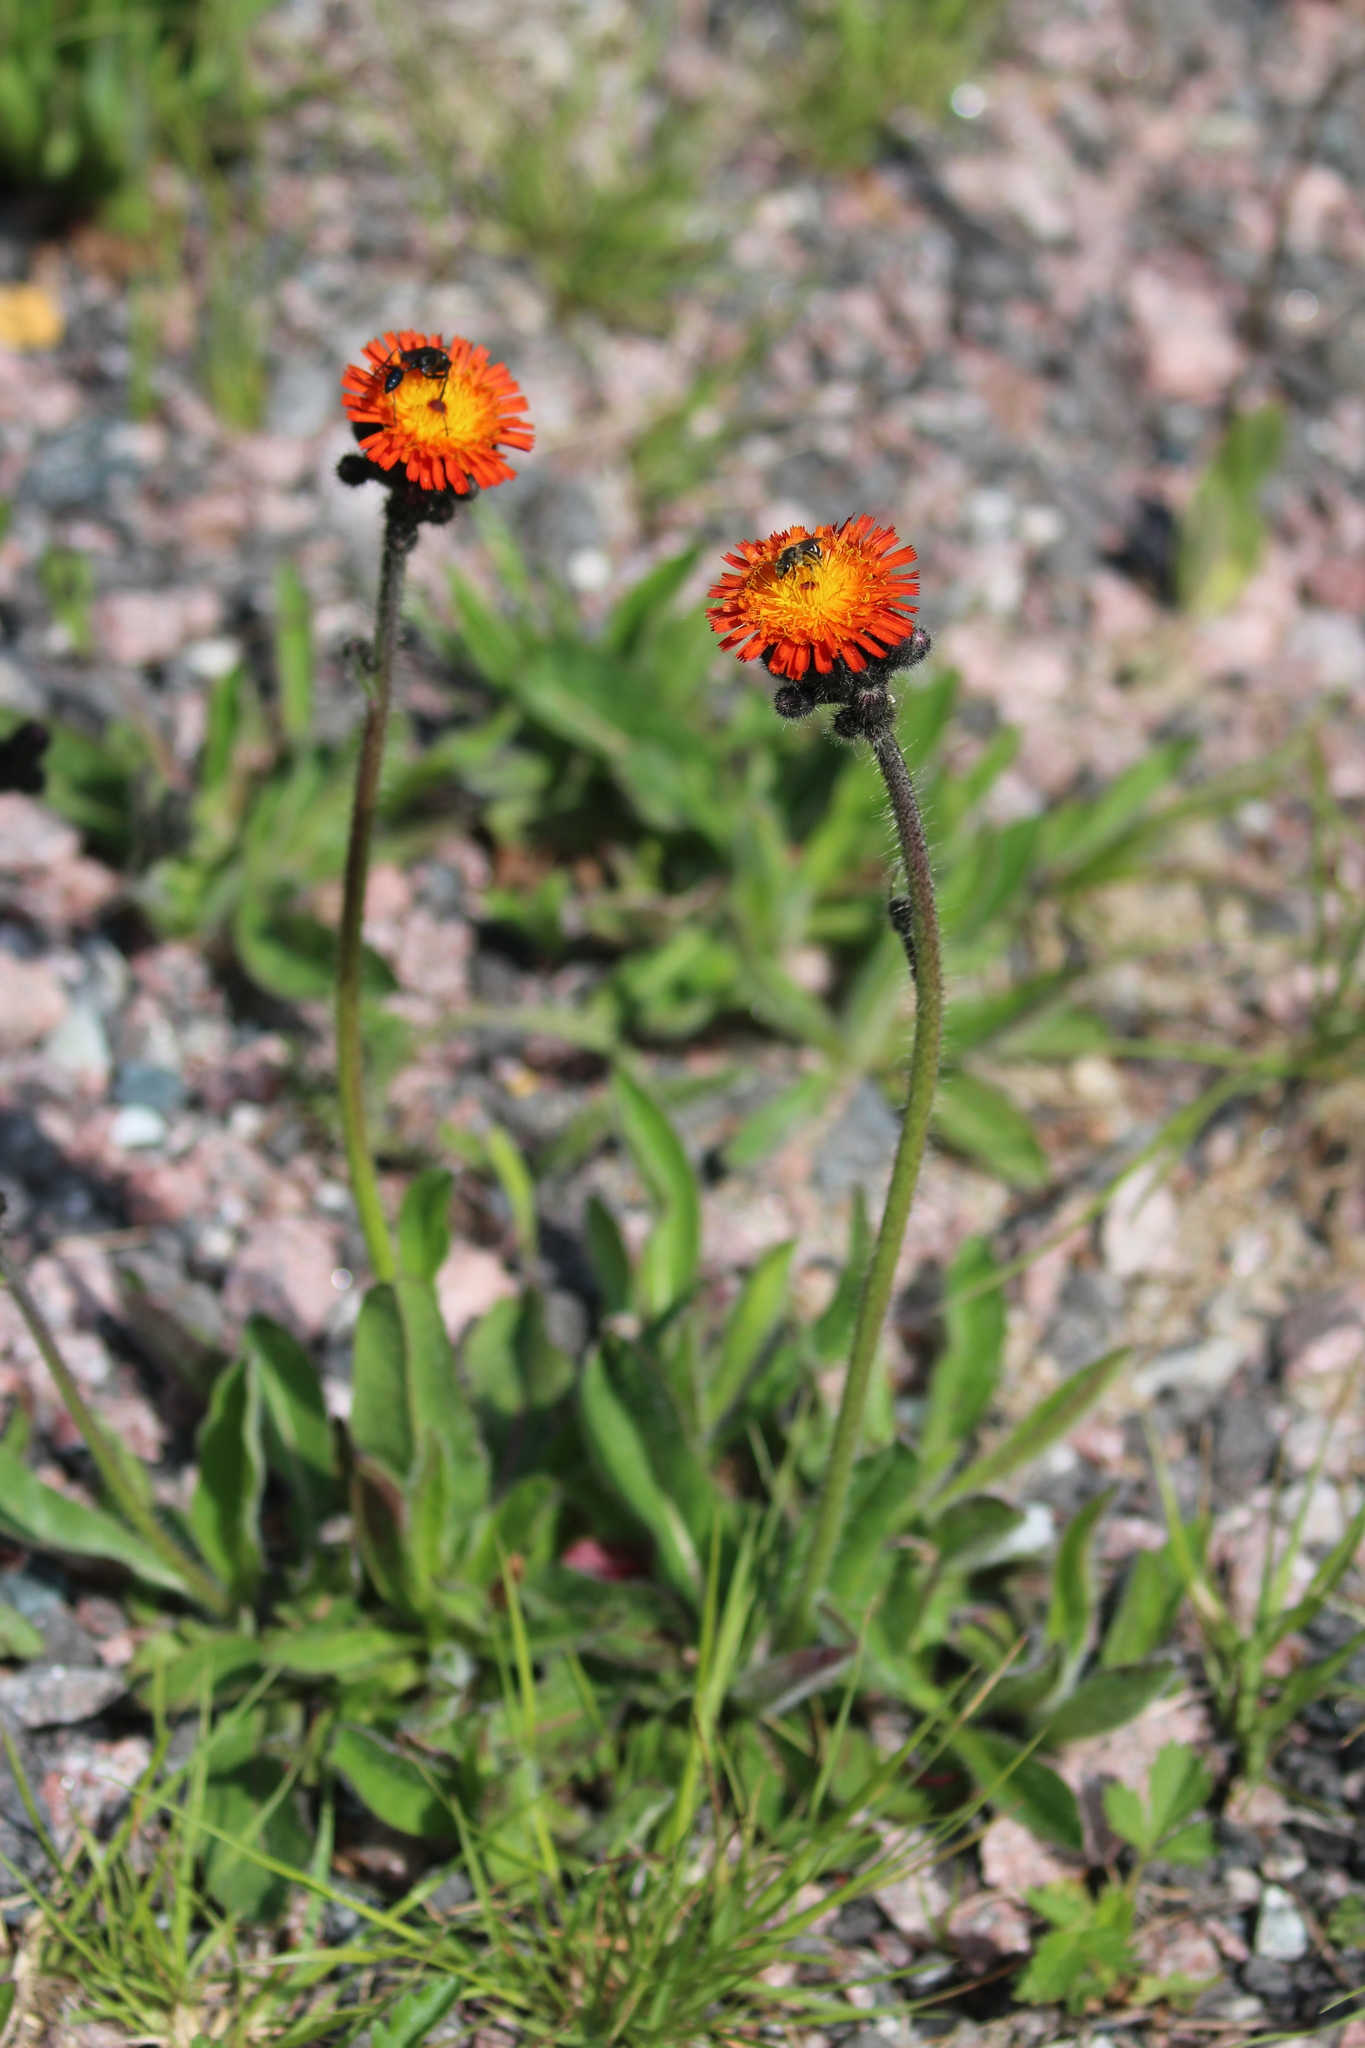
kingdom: Plantae
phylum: Tracheophyta
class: Magnoliopsida
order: Asterales
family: Asteraceae
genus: Pilosella
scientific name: Pilosella aurantiaca
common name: Fox-and-cubs
